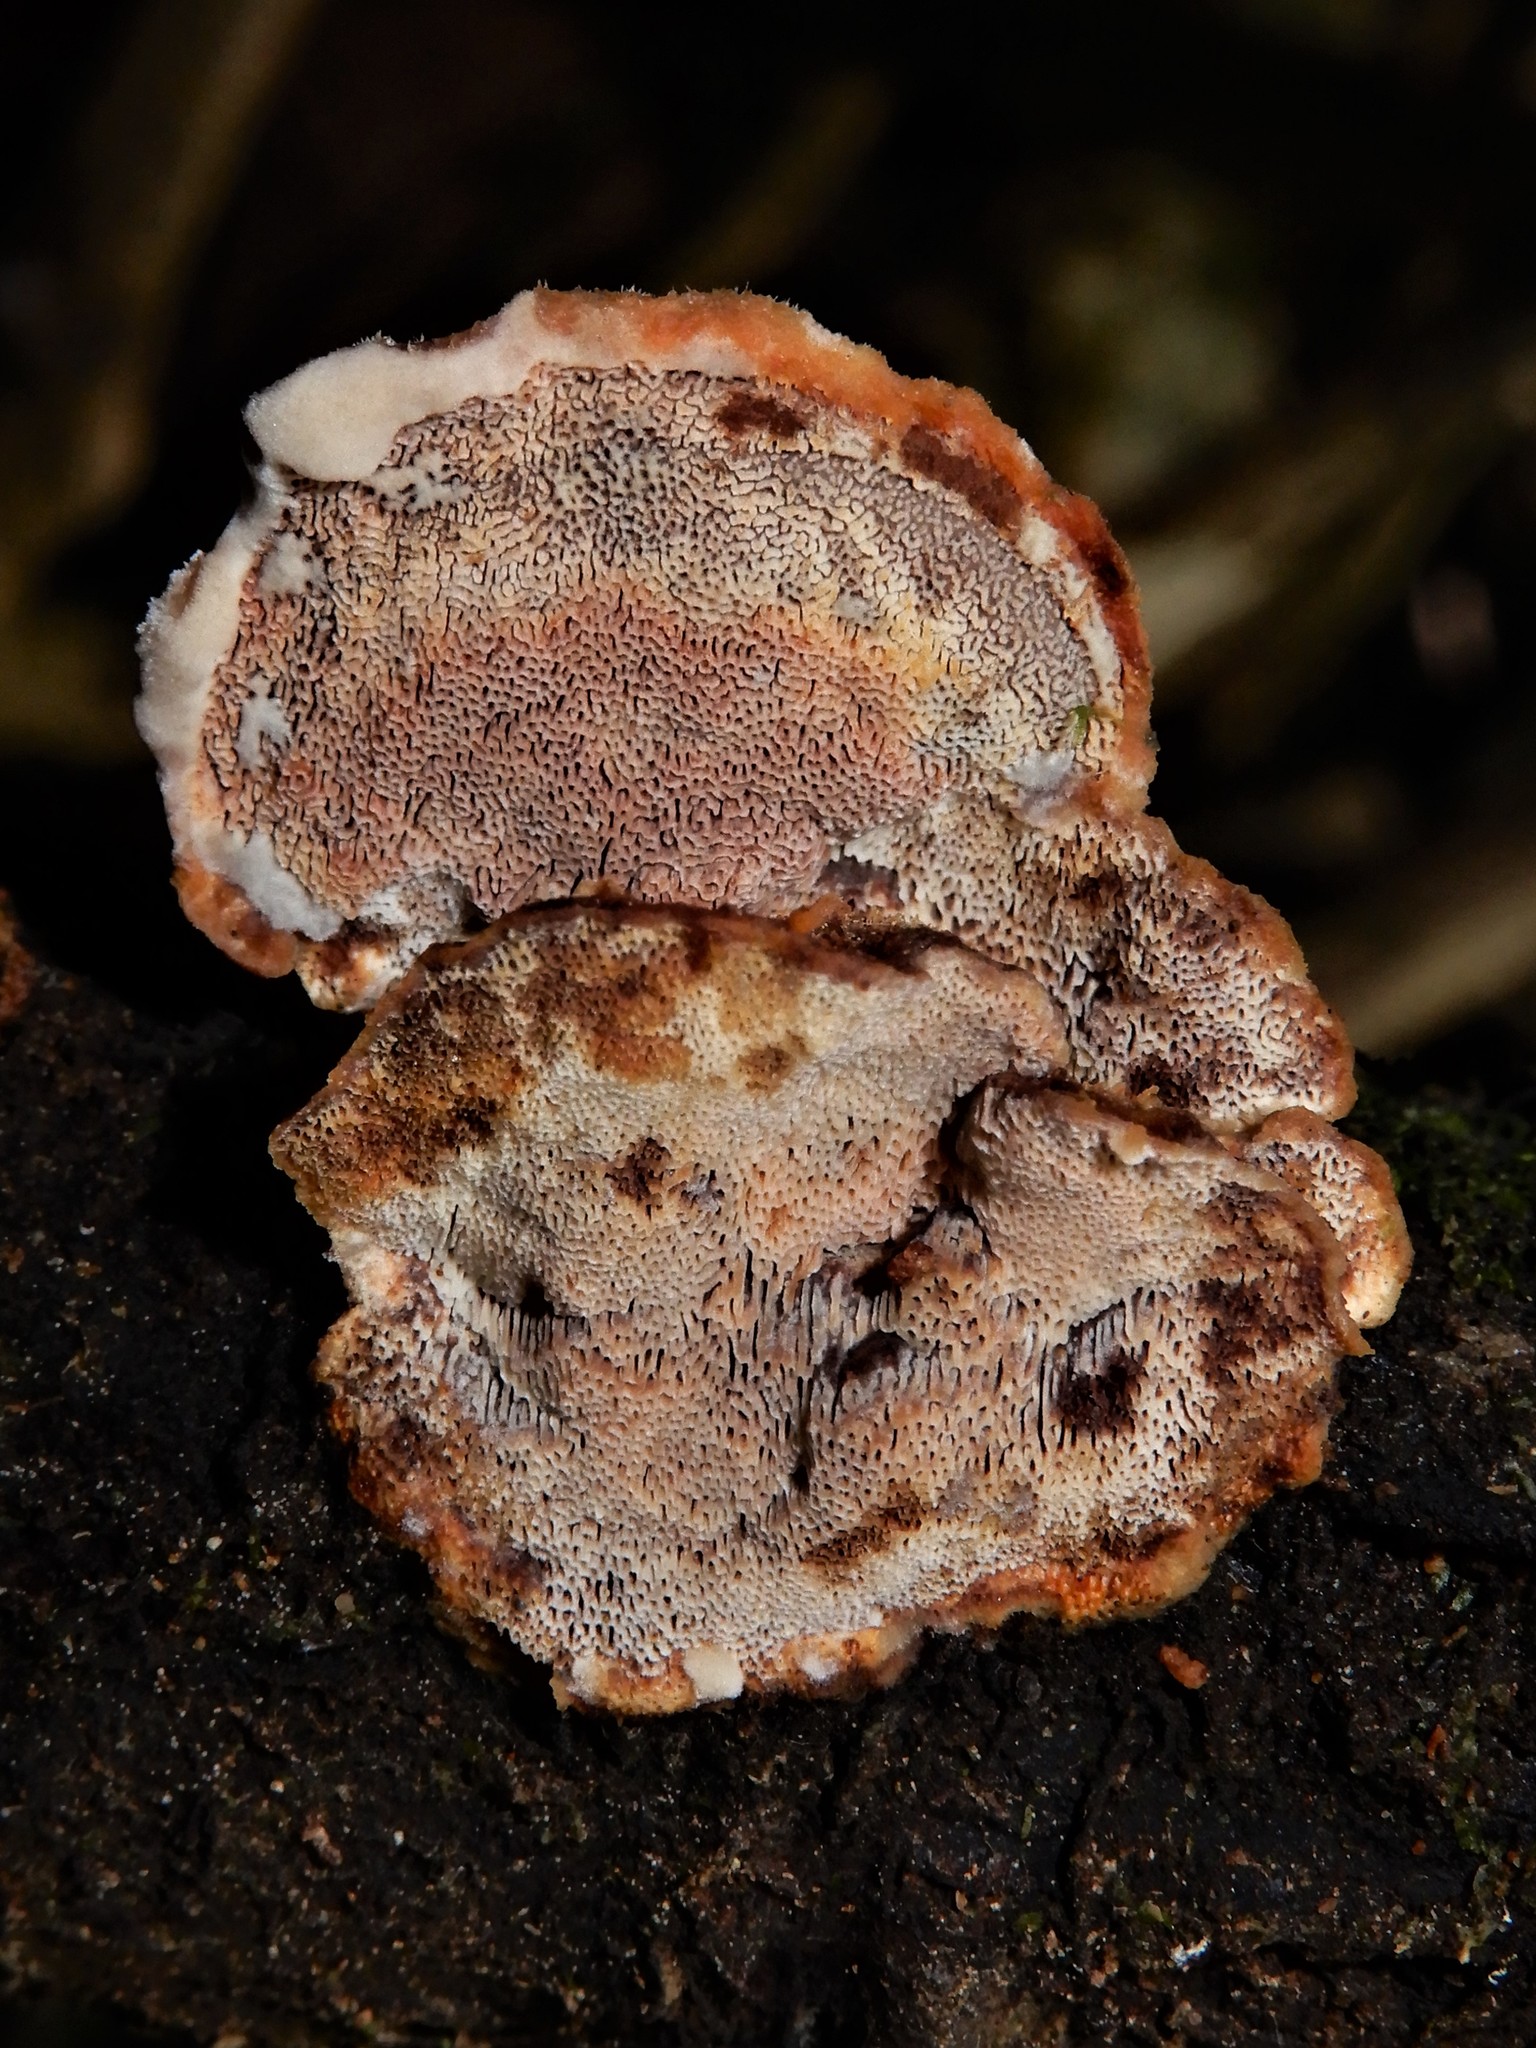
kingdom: Fungi
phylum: Basidiomycota
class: Agaricomycetes
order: Gloeophyllales
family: Gloeophyllaceae
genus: Gloeophyllum
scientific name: Gloeophyllum trabeum
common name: Timber mazegill
